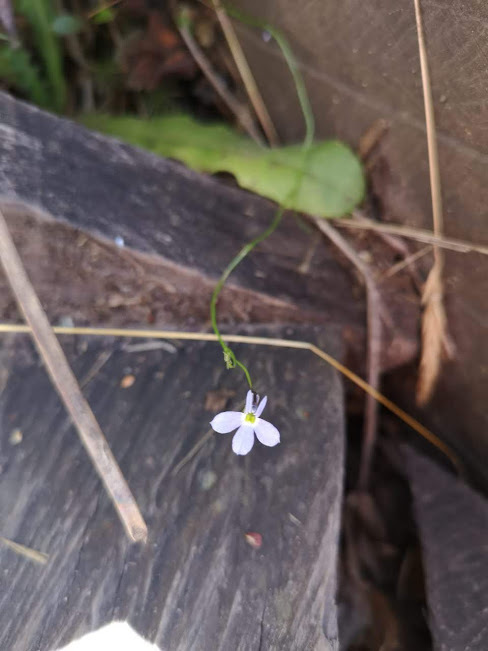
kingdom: Plantae
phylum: Tracheophyta
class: Magnoliopsida
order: Asterales
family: Campanulaceae
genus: Lobelia
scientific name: Lobelia tenera
